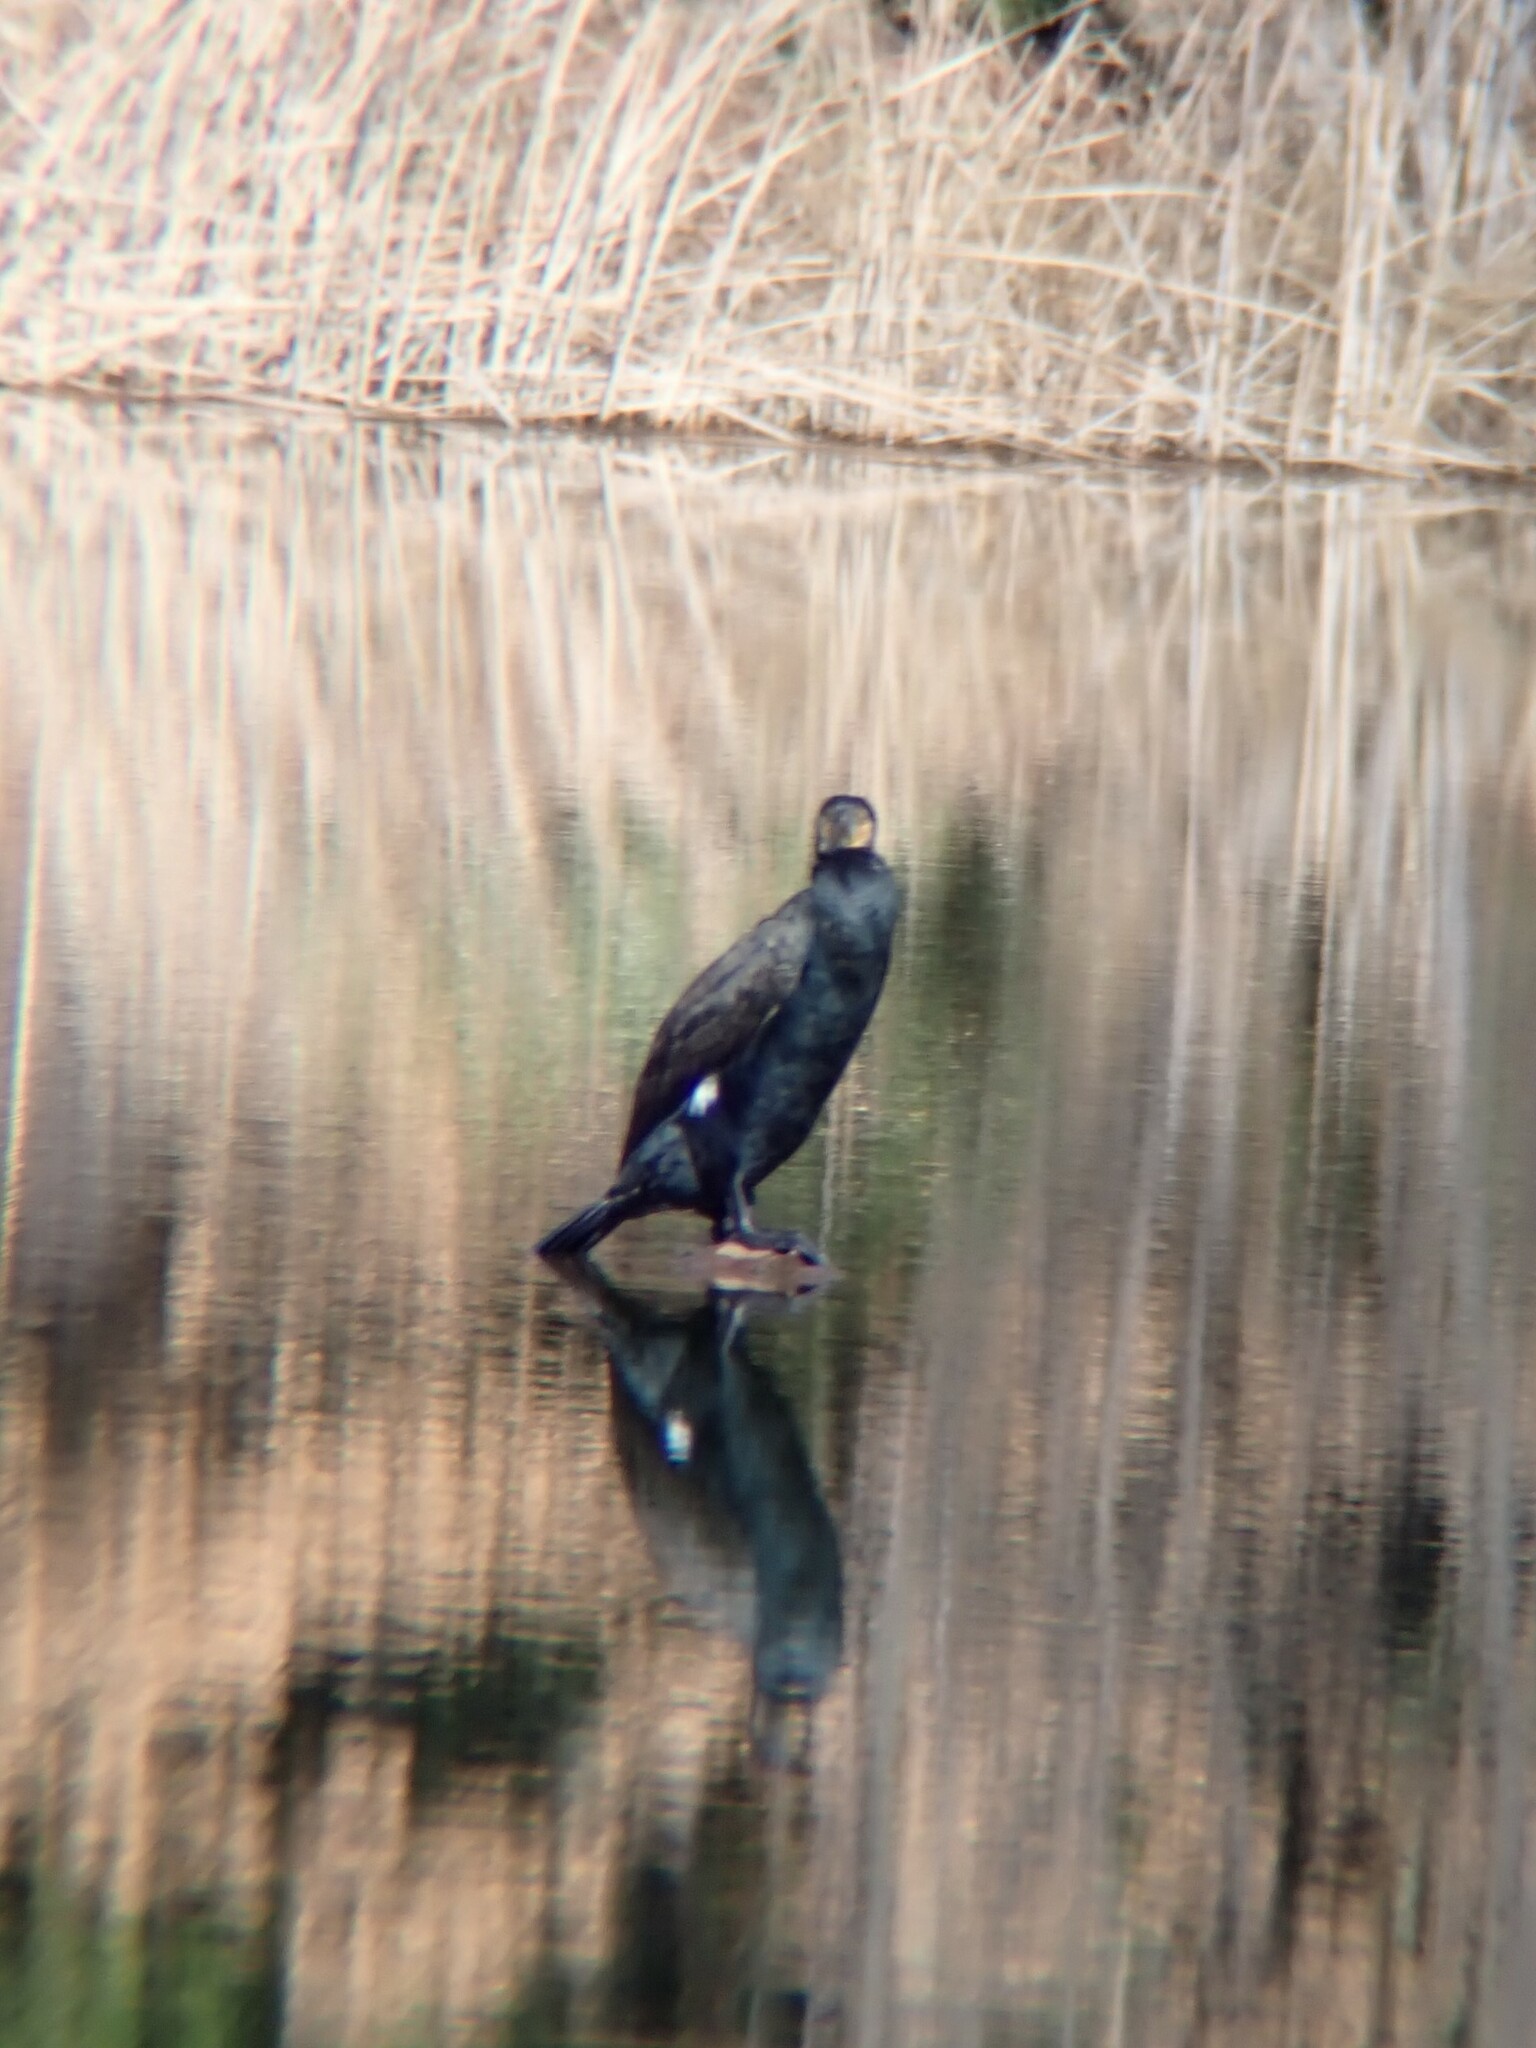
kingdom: Animalia
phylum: Chordata
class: Aves
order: Suliformes
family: Phalacrocoracidae
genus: Phalacrocorax
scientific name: Phalacrocorax carbo
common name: Great cormorant
